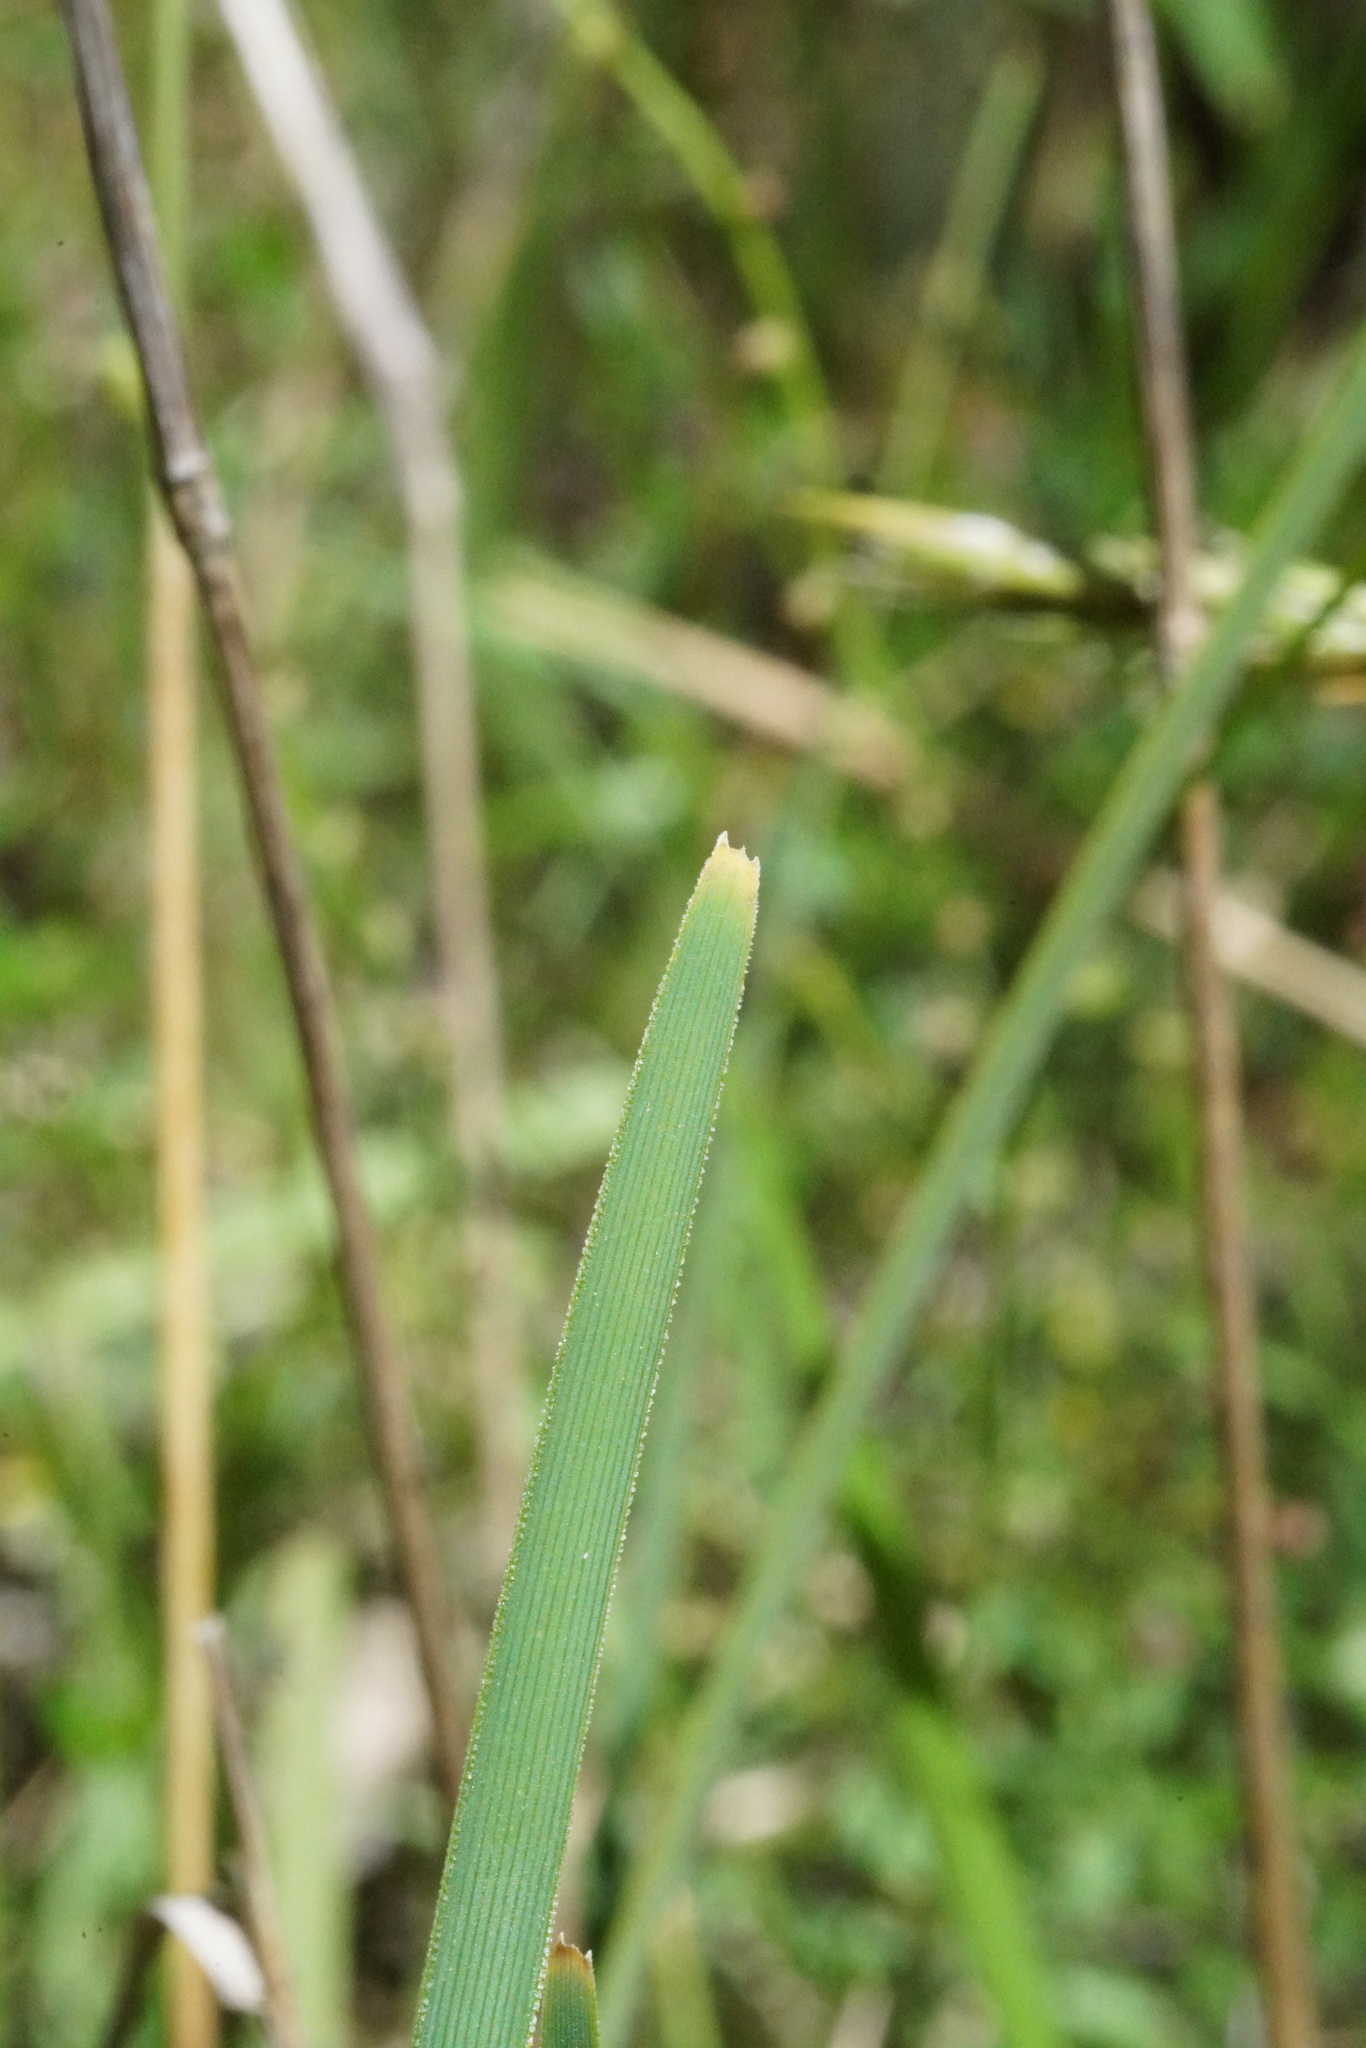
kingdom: Plantae
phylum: Tracheophyta
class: Liliopsida
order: Asparagales
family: Asparagaceae
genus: Lomandra
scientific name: Lomandra filiformis
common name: Wattle mat-rush
